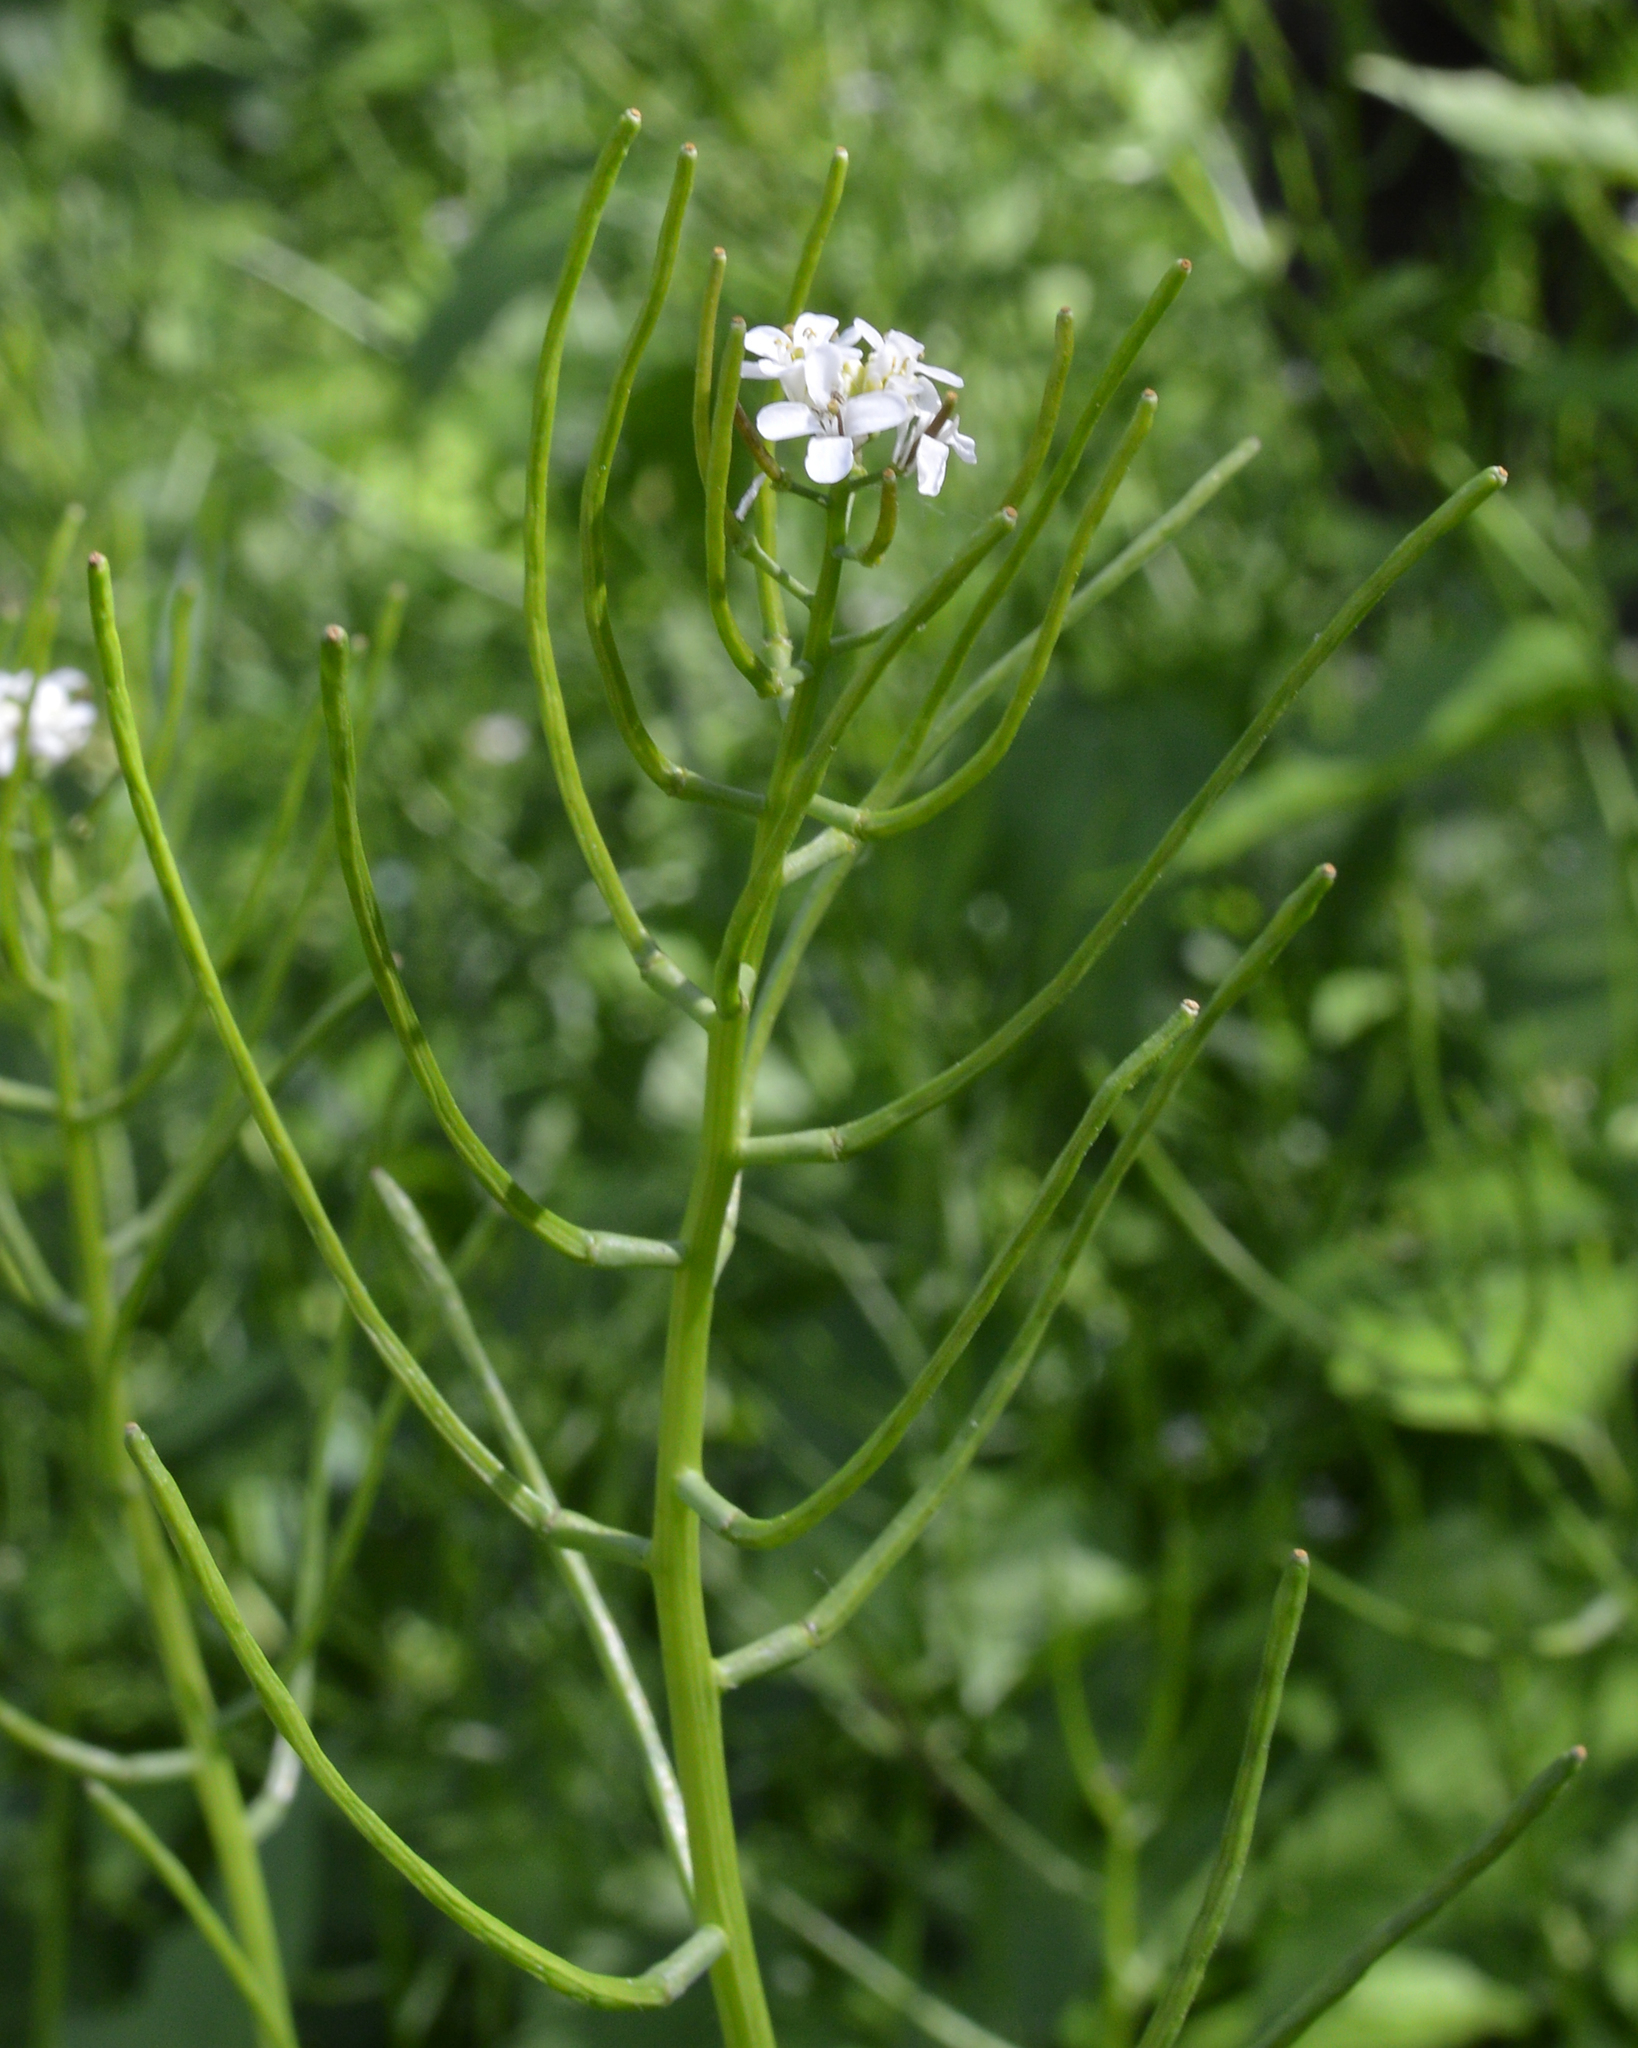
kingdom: Plantae
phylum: Tracheophyta
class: Magnoliopsida
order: Brassicales
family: Brassicaceae
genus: Alliaria
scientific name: Alliaria petiolata
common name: Garlic mustard
